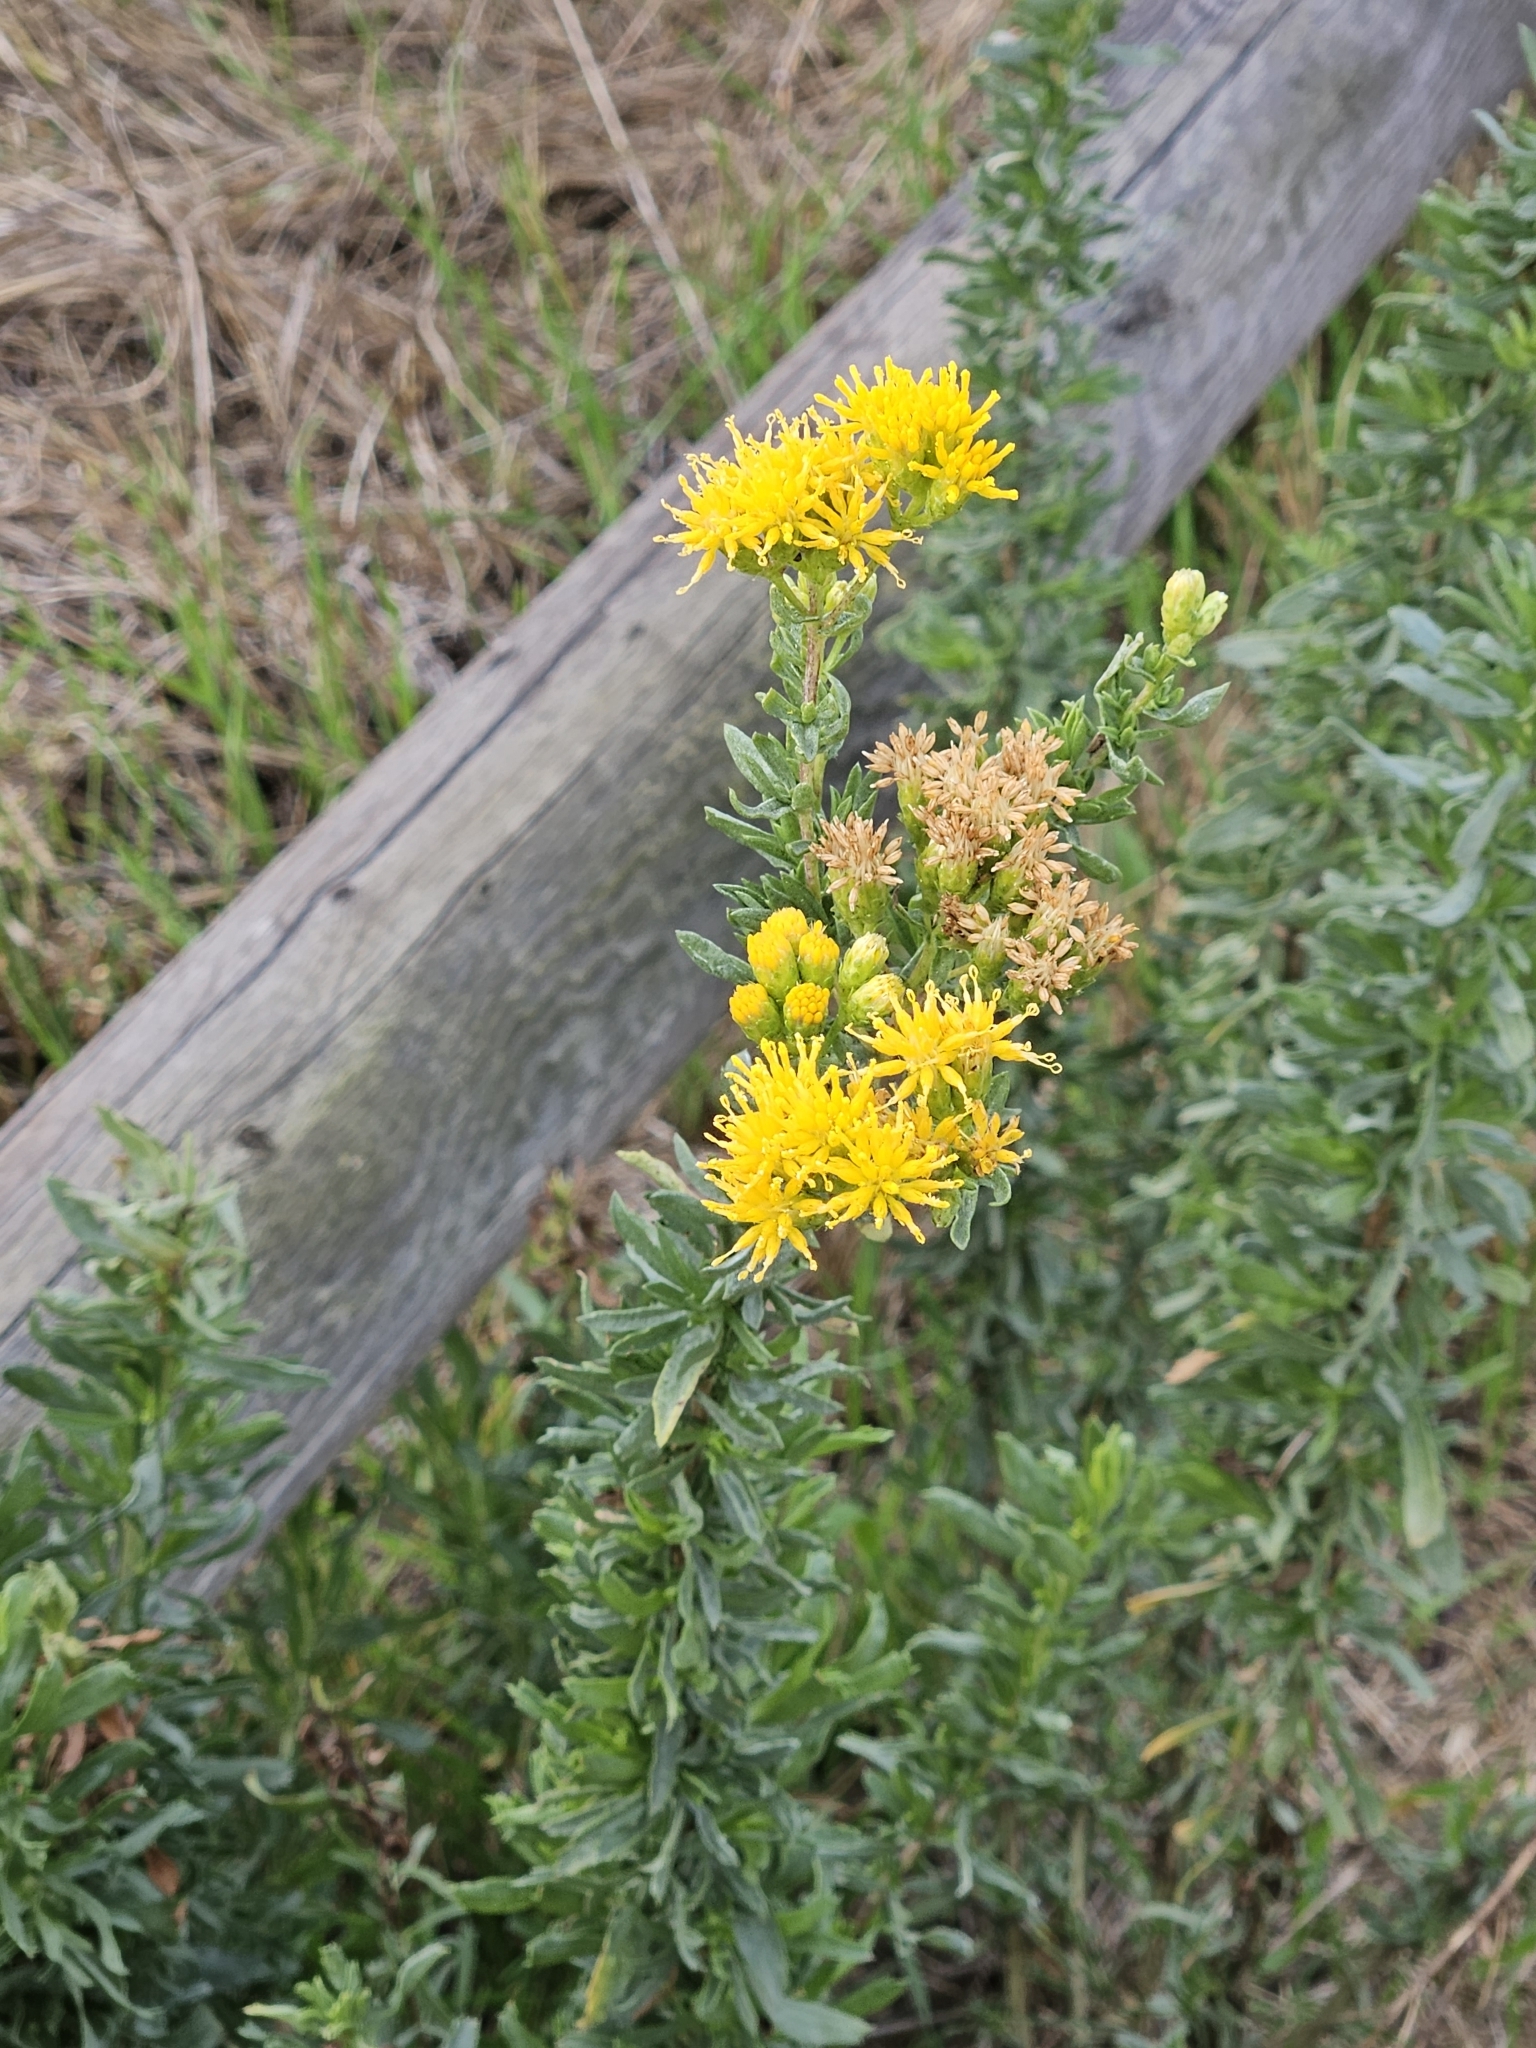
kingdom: Plantae
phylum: Tracheophyta
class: Magnoliopsida
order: Asterales
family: Asteraceae
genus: Isocoma
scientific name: Isocoma menziesii
